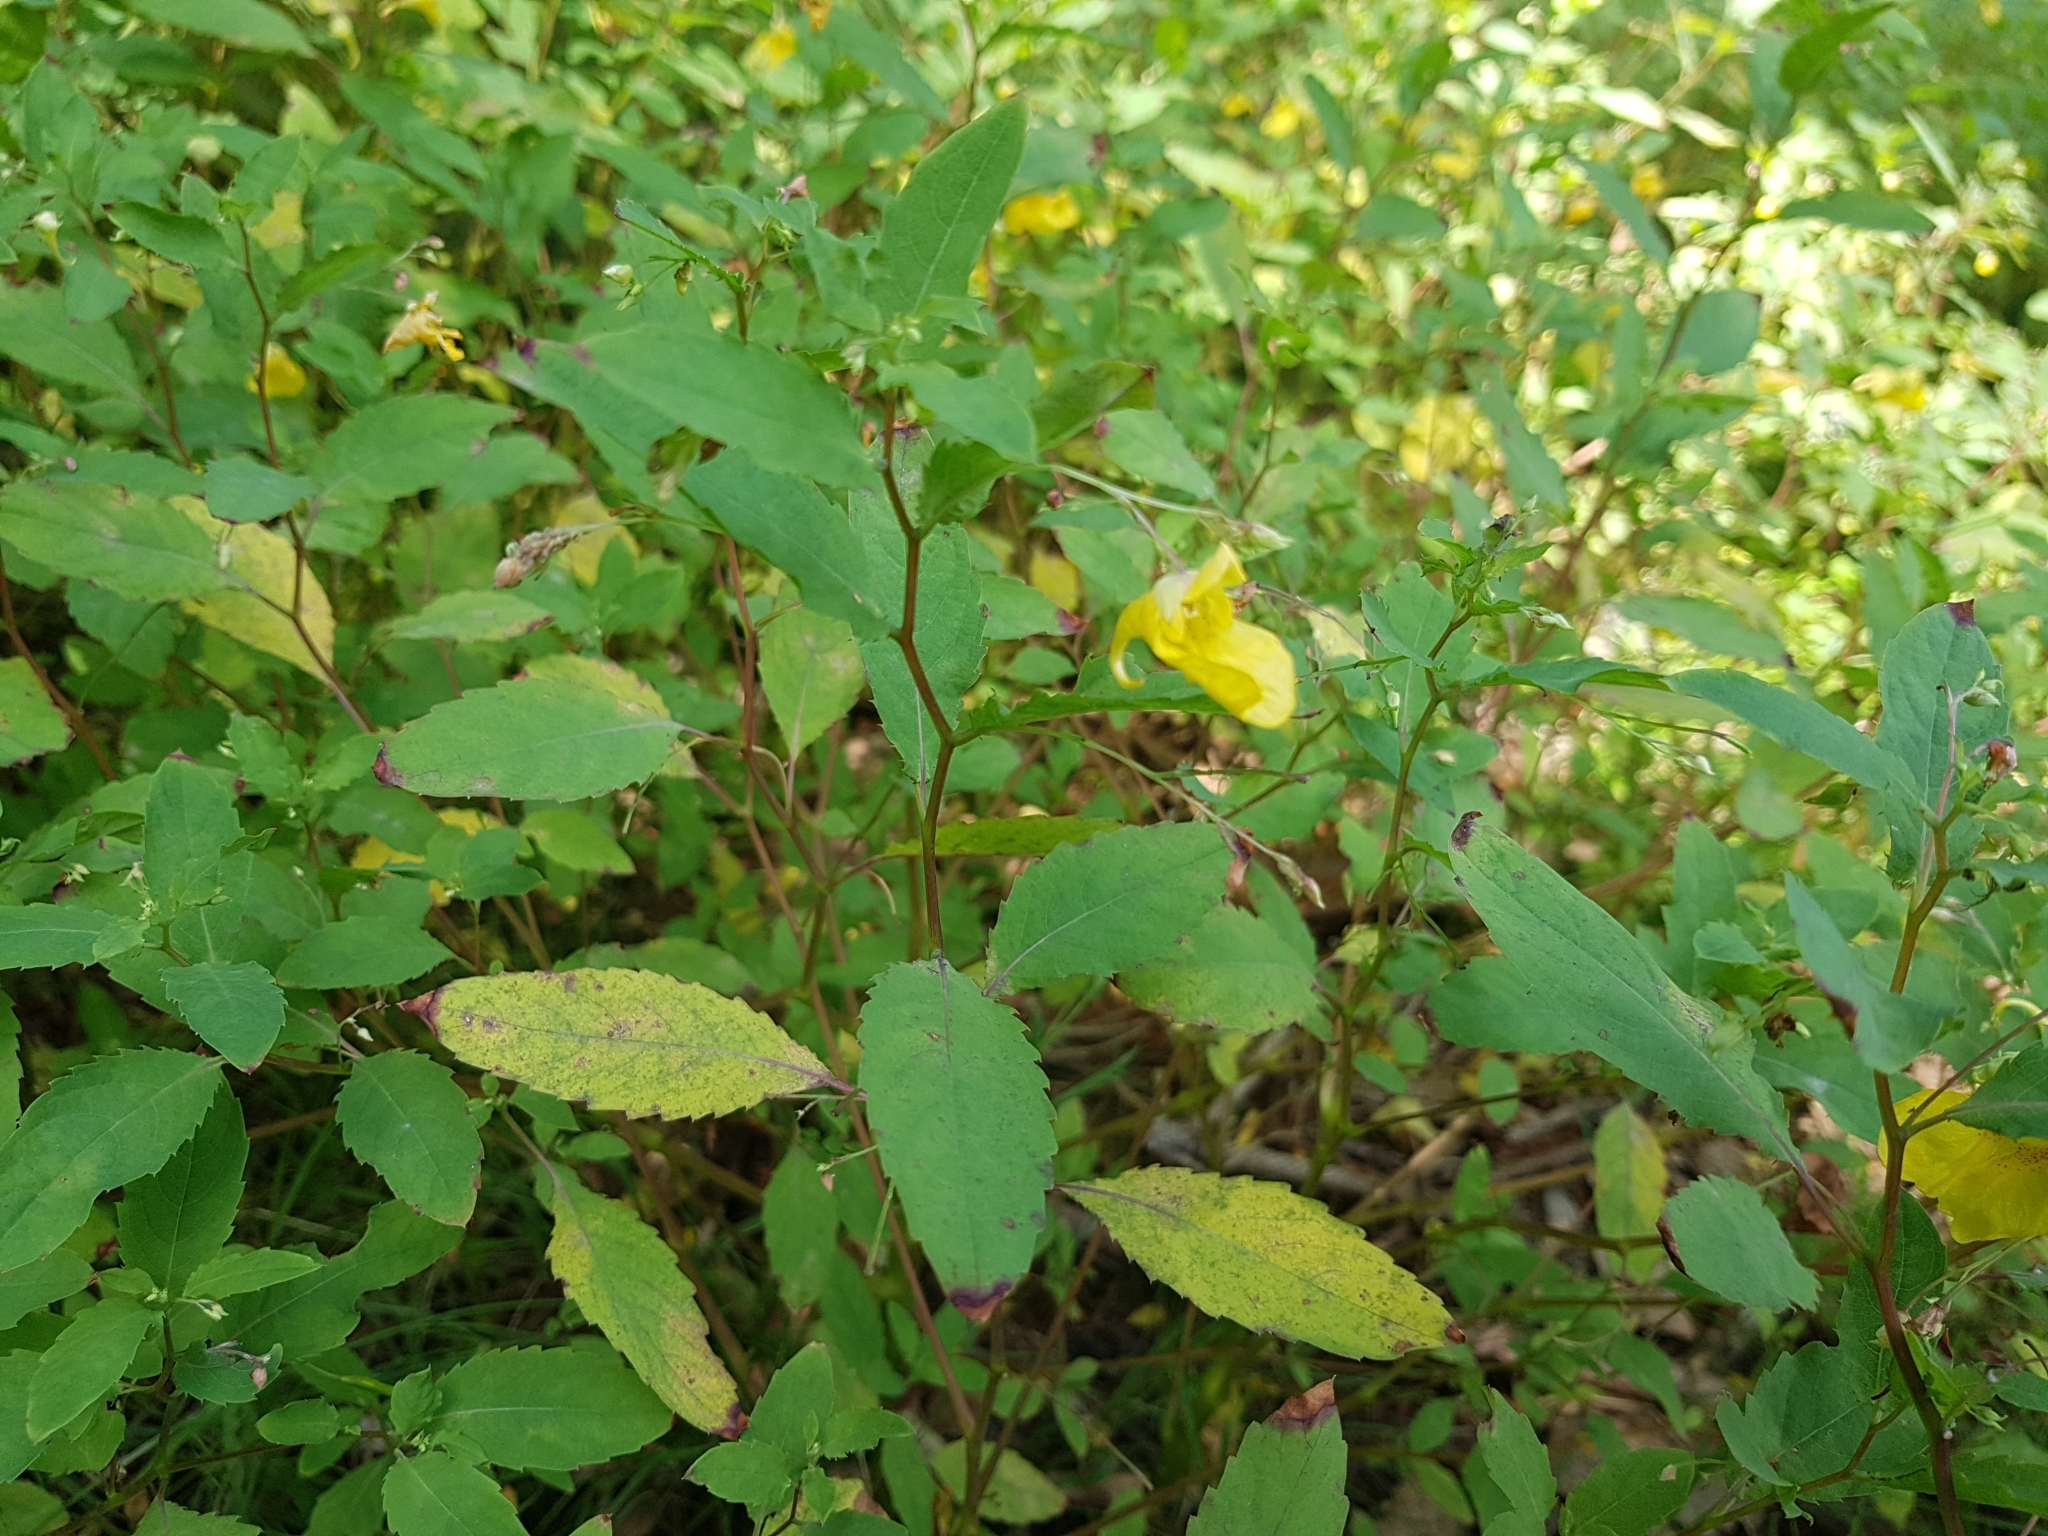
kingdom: Plantae
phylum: Tracheophyta
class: Magnoliopsida
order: Ericales
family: Balsaminaceae
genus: Impatiens
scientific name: Impatiens noli-tangere
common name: Touch-me-not balsam
